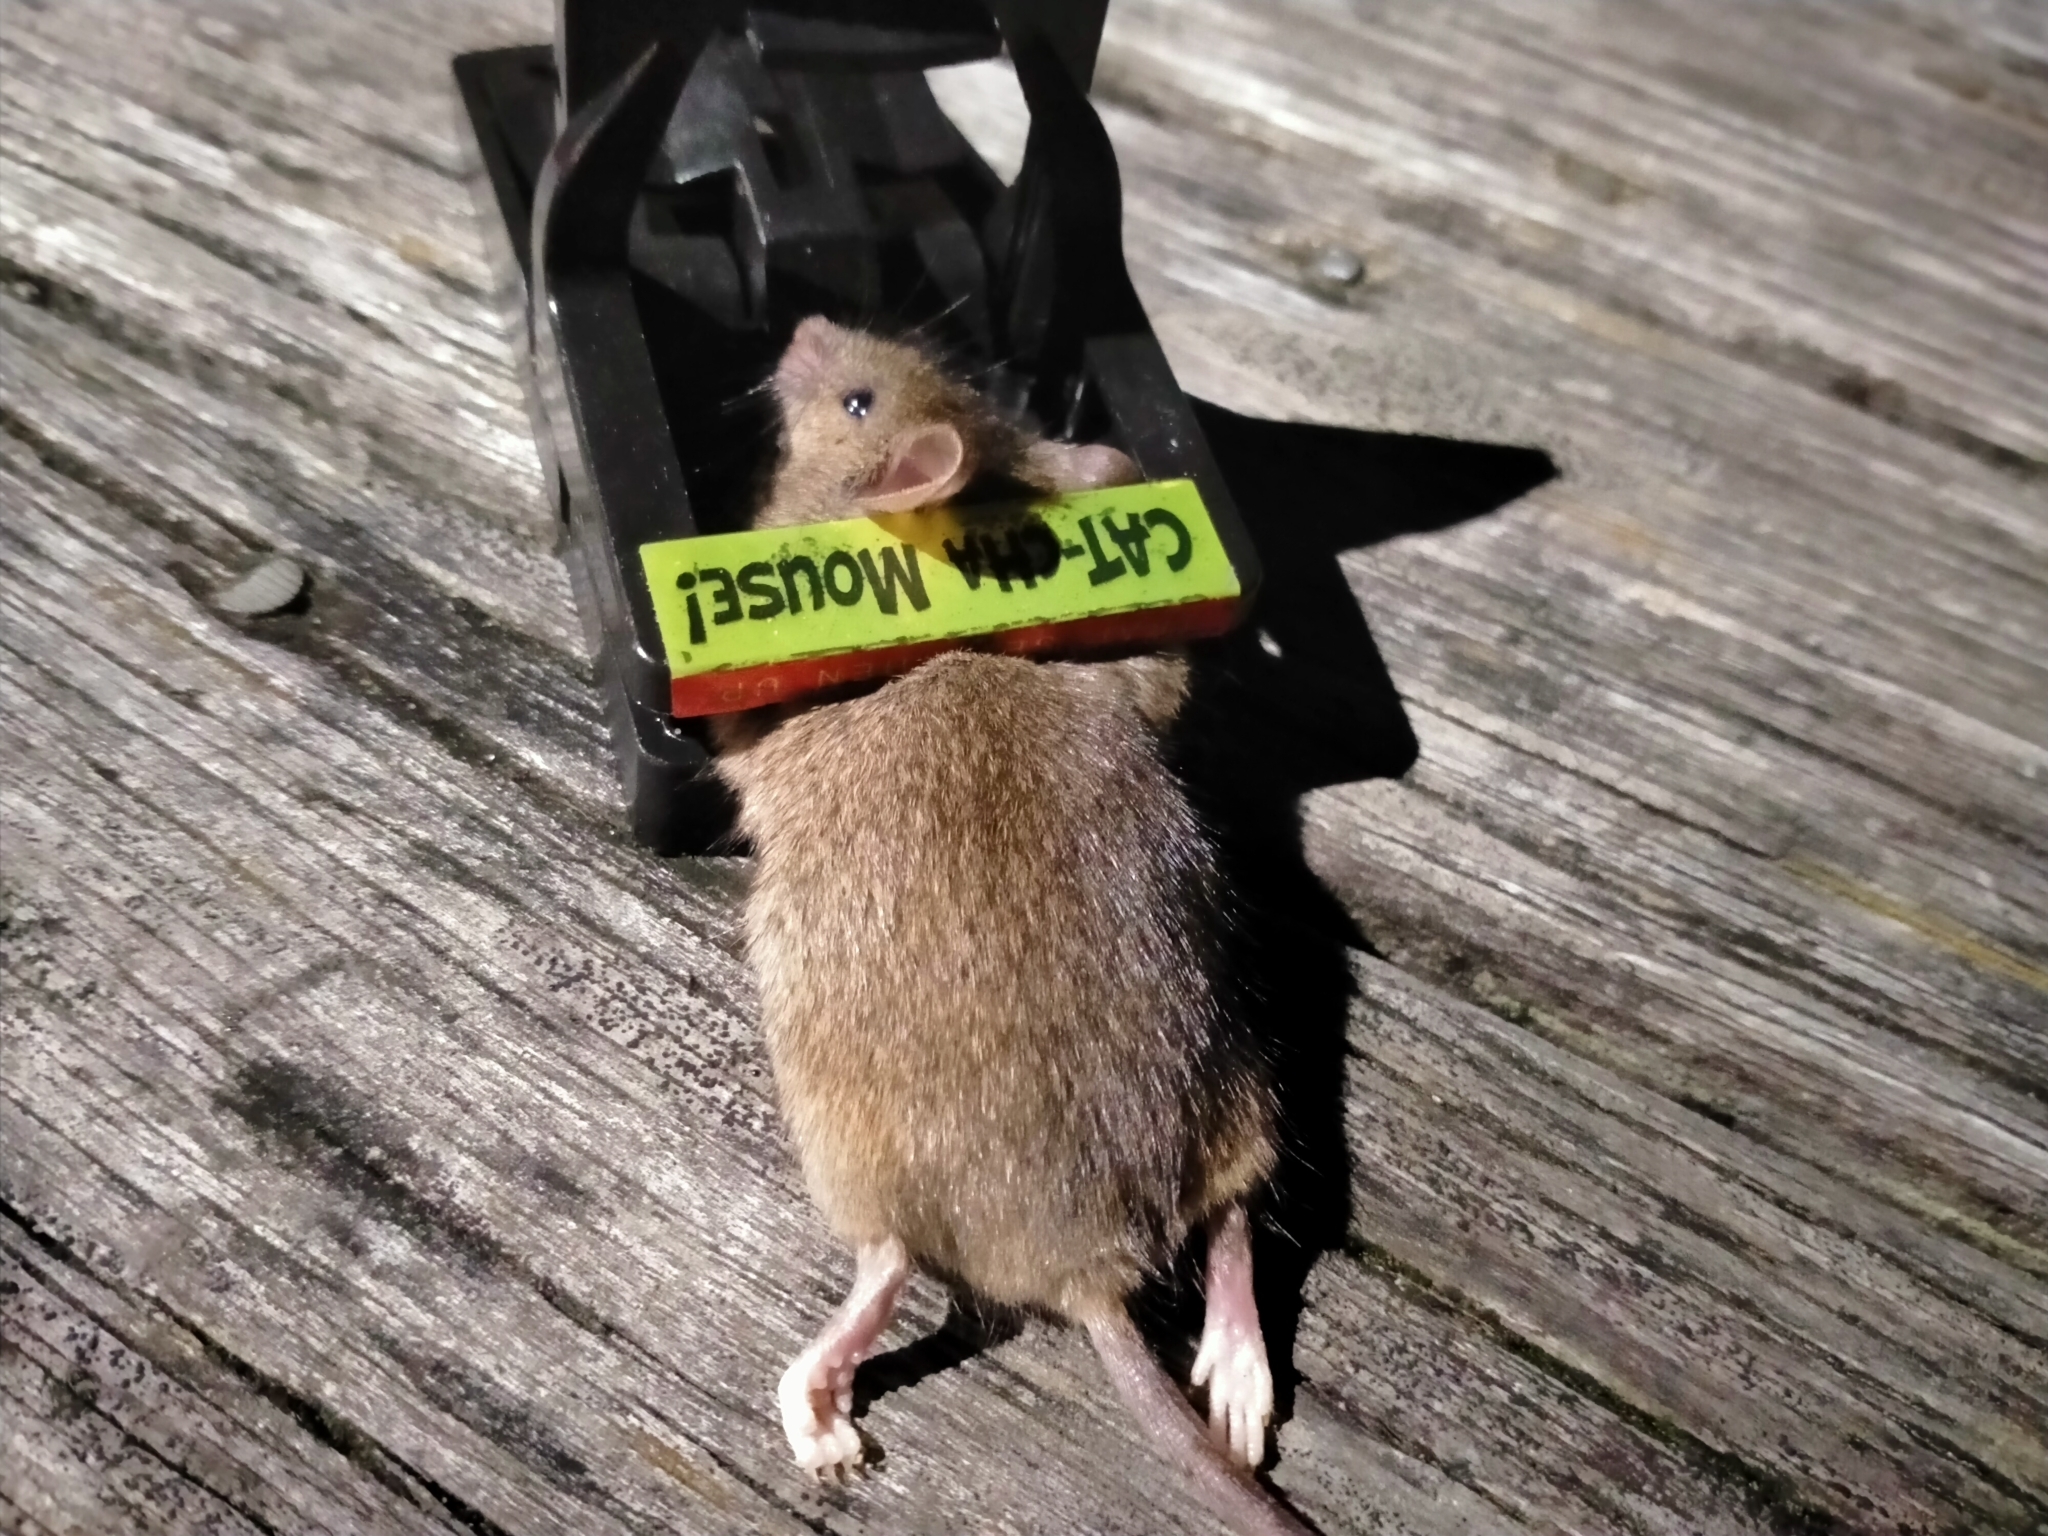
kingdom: Animalia
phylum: Chordata
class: Mammalia
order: Rodentia
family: Muridae
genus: Mus
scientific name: Mus musculus
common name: House mouse
